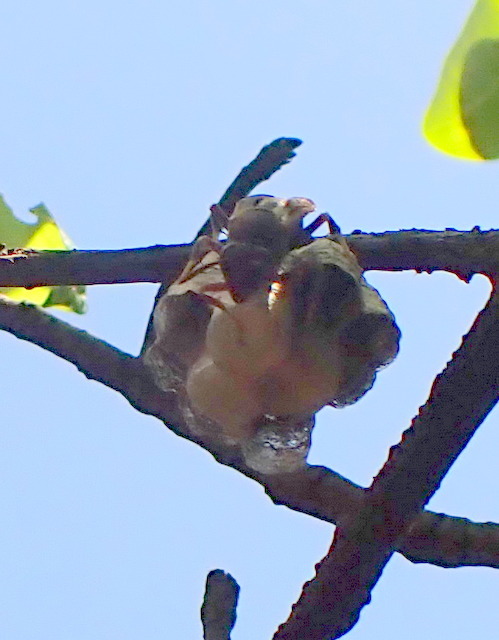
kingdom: Animalia
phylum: Arthropoda
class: Insecta
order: Hymenoptera
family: Eumenidae
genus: Polistes
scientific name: Polistes
